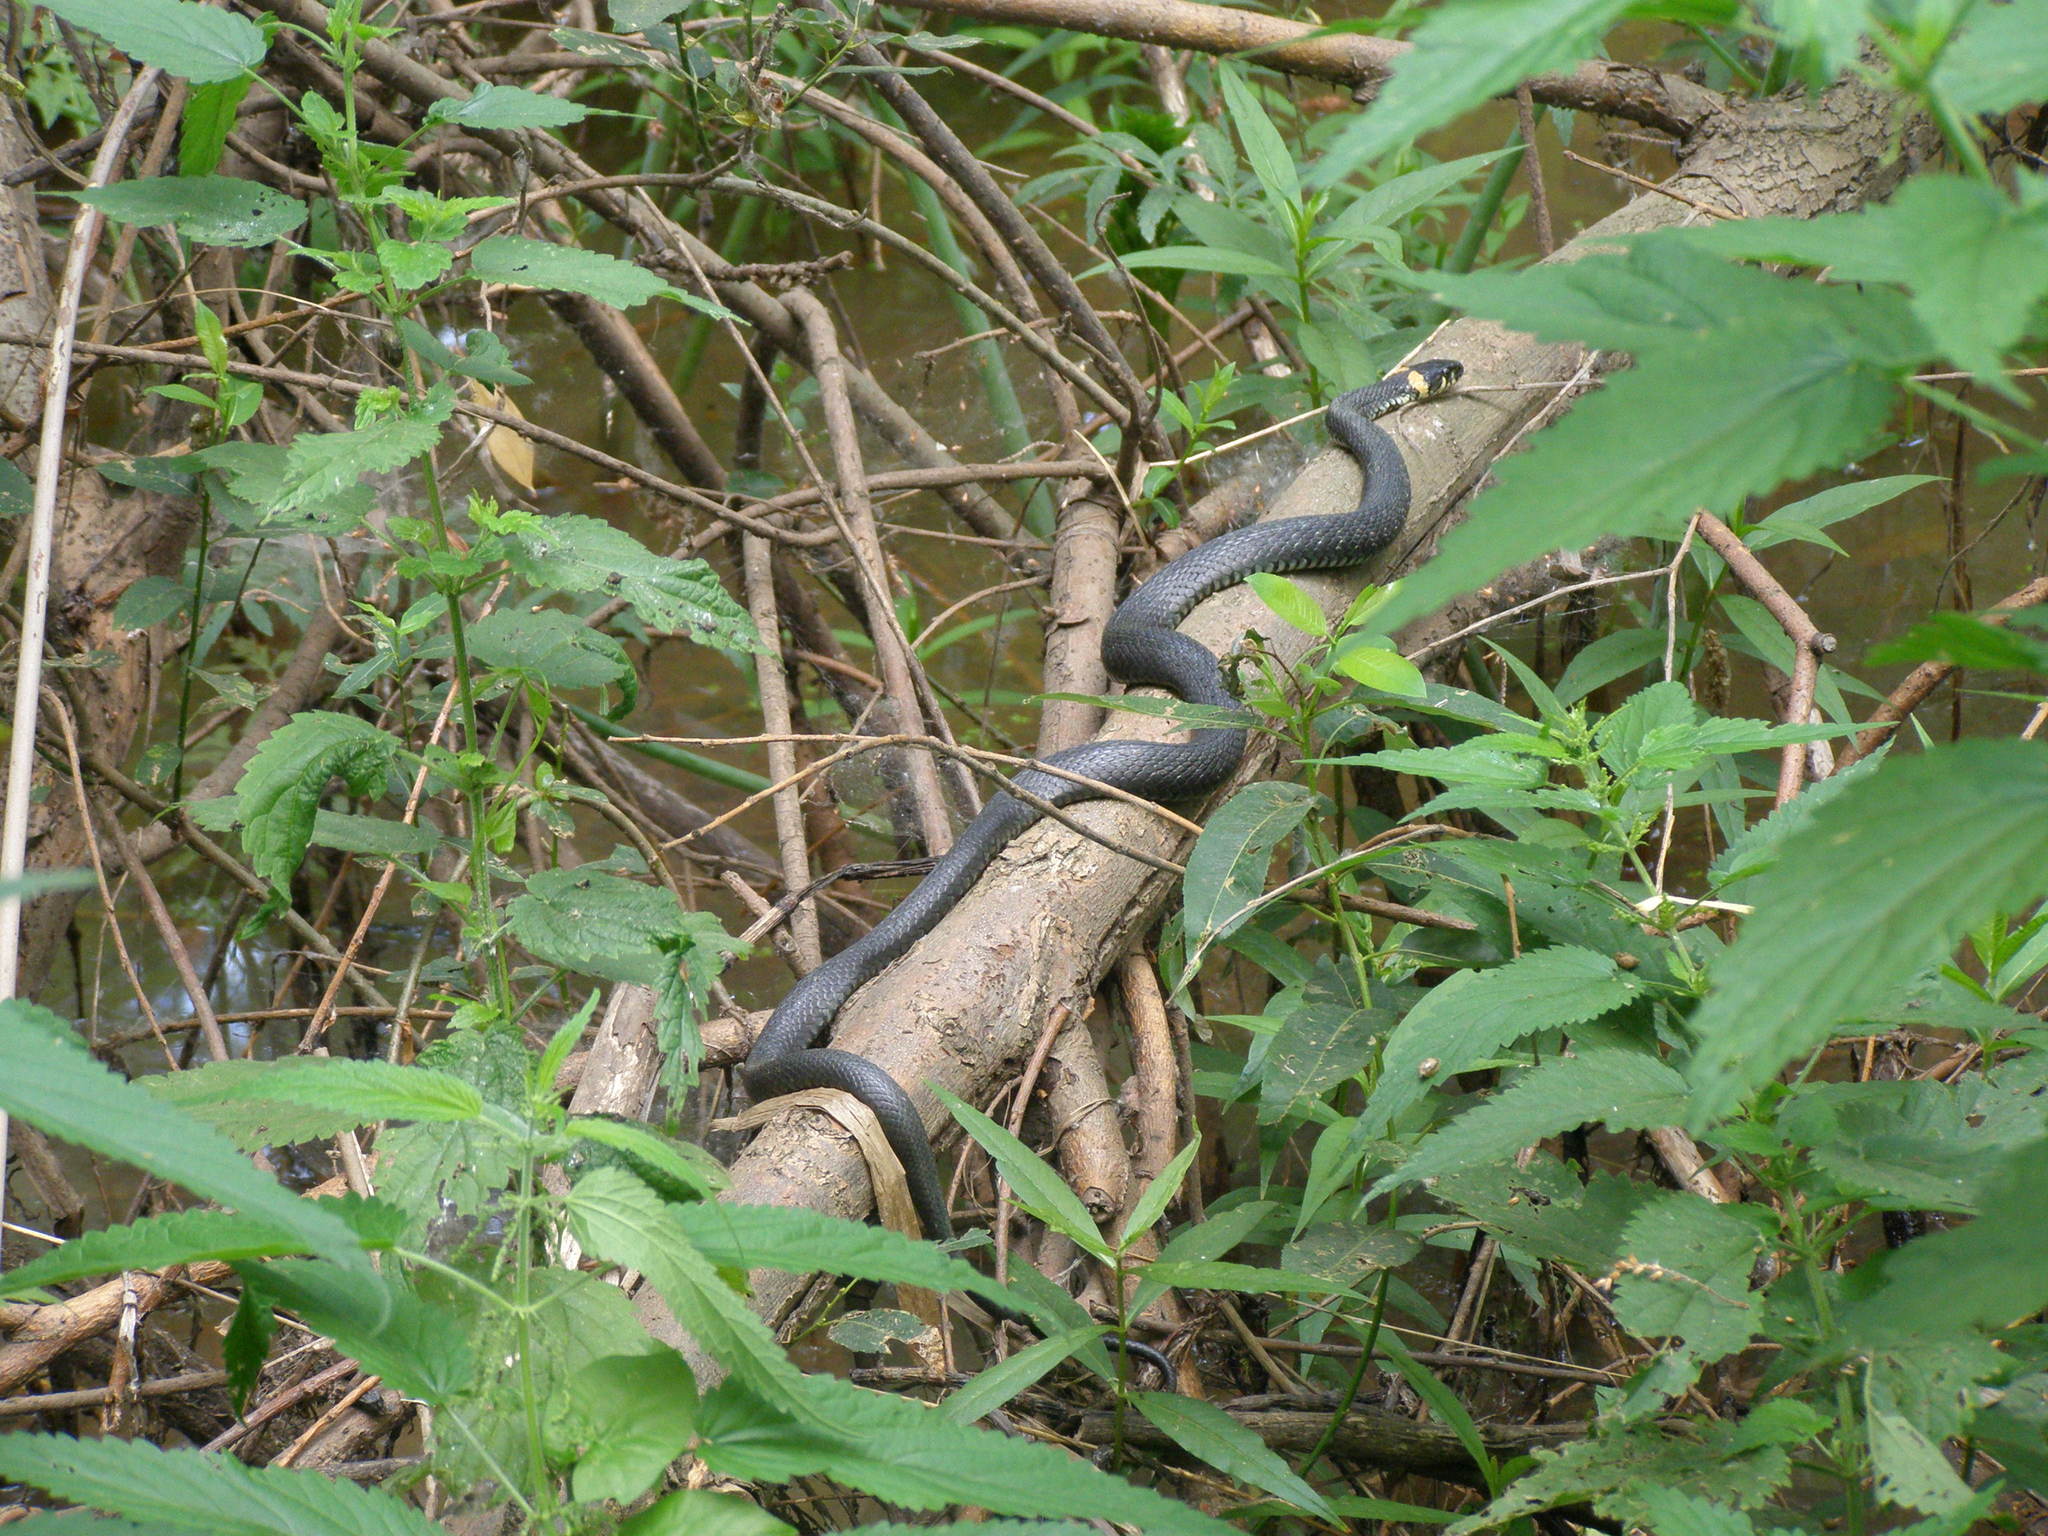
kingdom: Animalia
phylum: Chordata
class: Squamata
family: Colubridae
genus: Natrix
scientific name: Natrix natrix
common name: Grass snake
